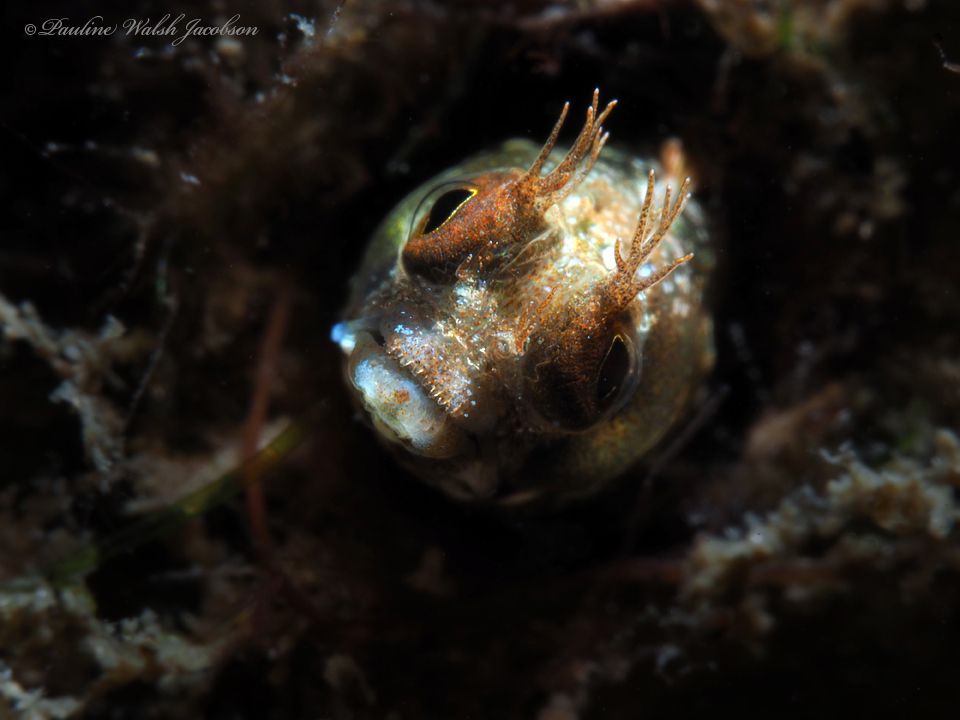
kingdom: Animalia
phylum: Chordata
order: Perciformes
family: Chaenopsidae
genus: Acanthemblemaria
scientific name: Acanthemblemaria aspera
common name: Roughhead blenny
